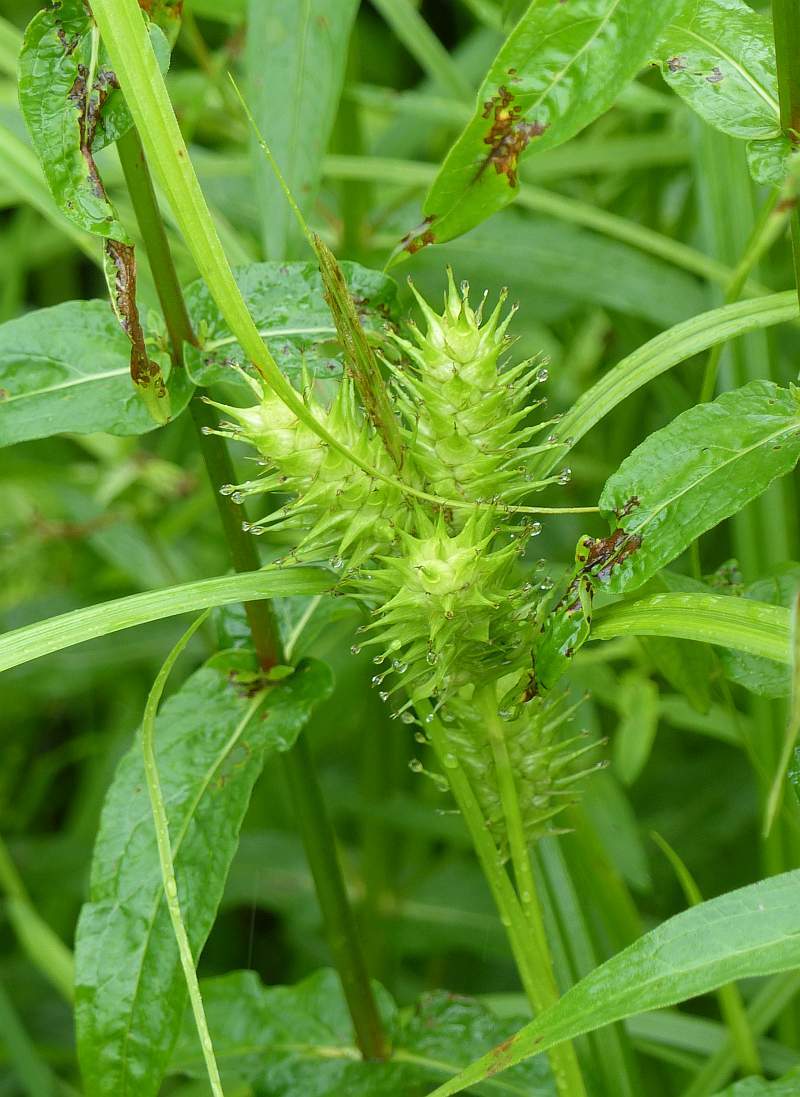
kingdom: Plantae
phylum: Tracheophyta
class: Liliopsida
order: Poales
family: Cyperaceae
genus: Carex
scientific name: Carex lupulina
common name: Hop sedge
